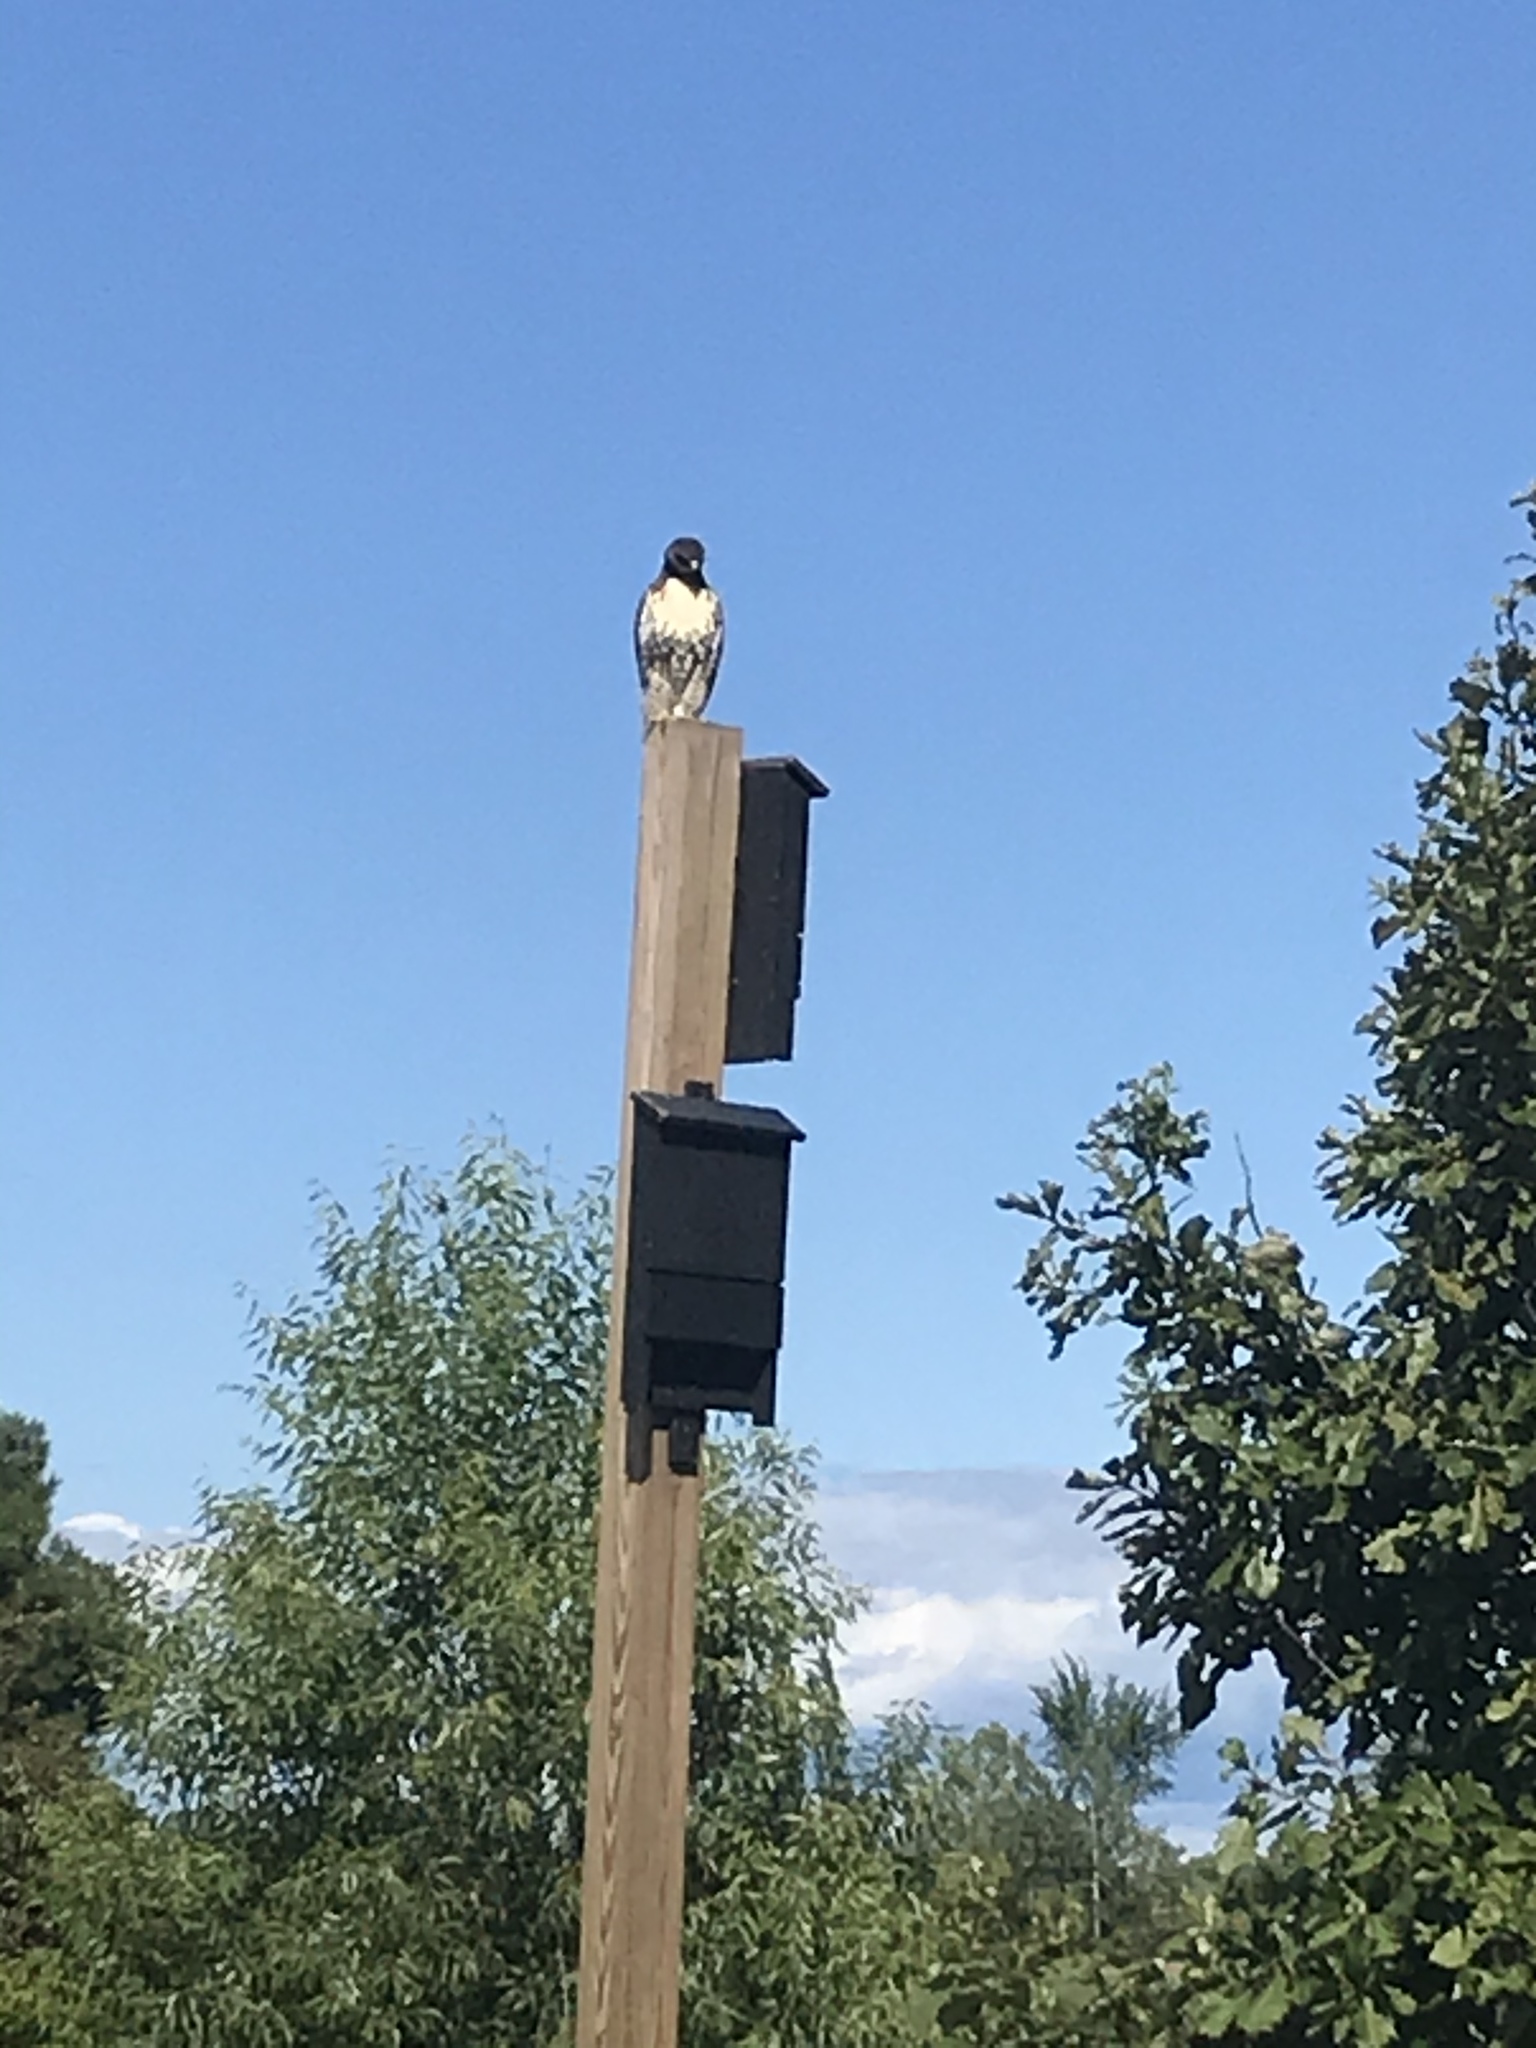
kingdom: Animalia
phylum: Chordata
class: Aves
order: Accipitriformes
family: Accipitridae
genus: Buteo
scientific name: Buteo jamaicensis
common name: Red-tailed hawk
